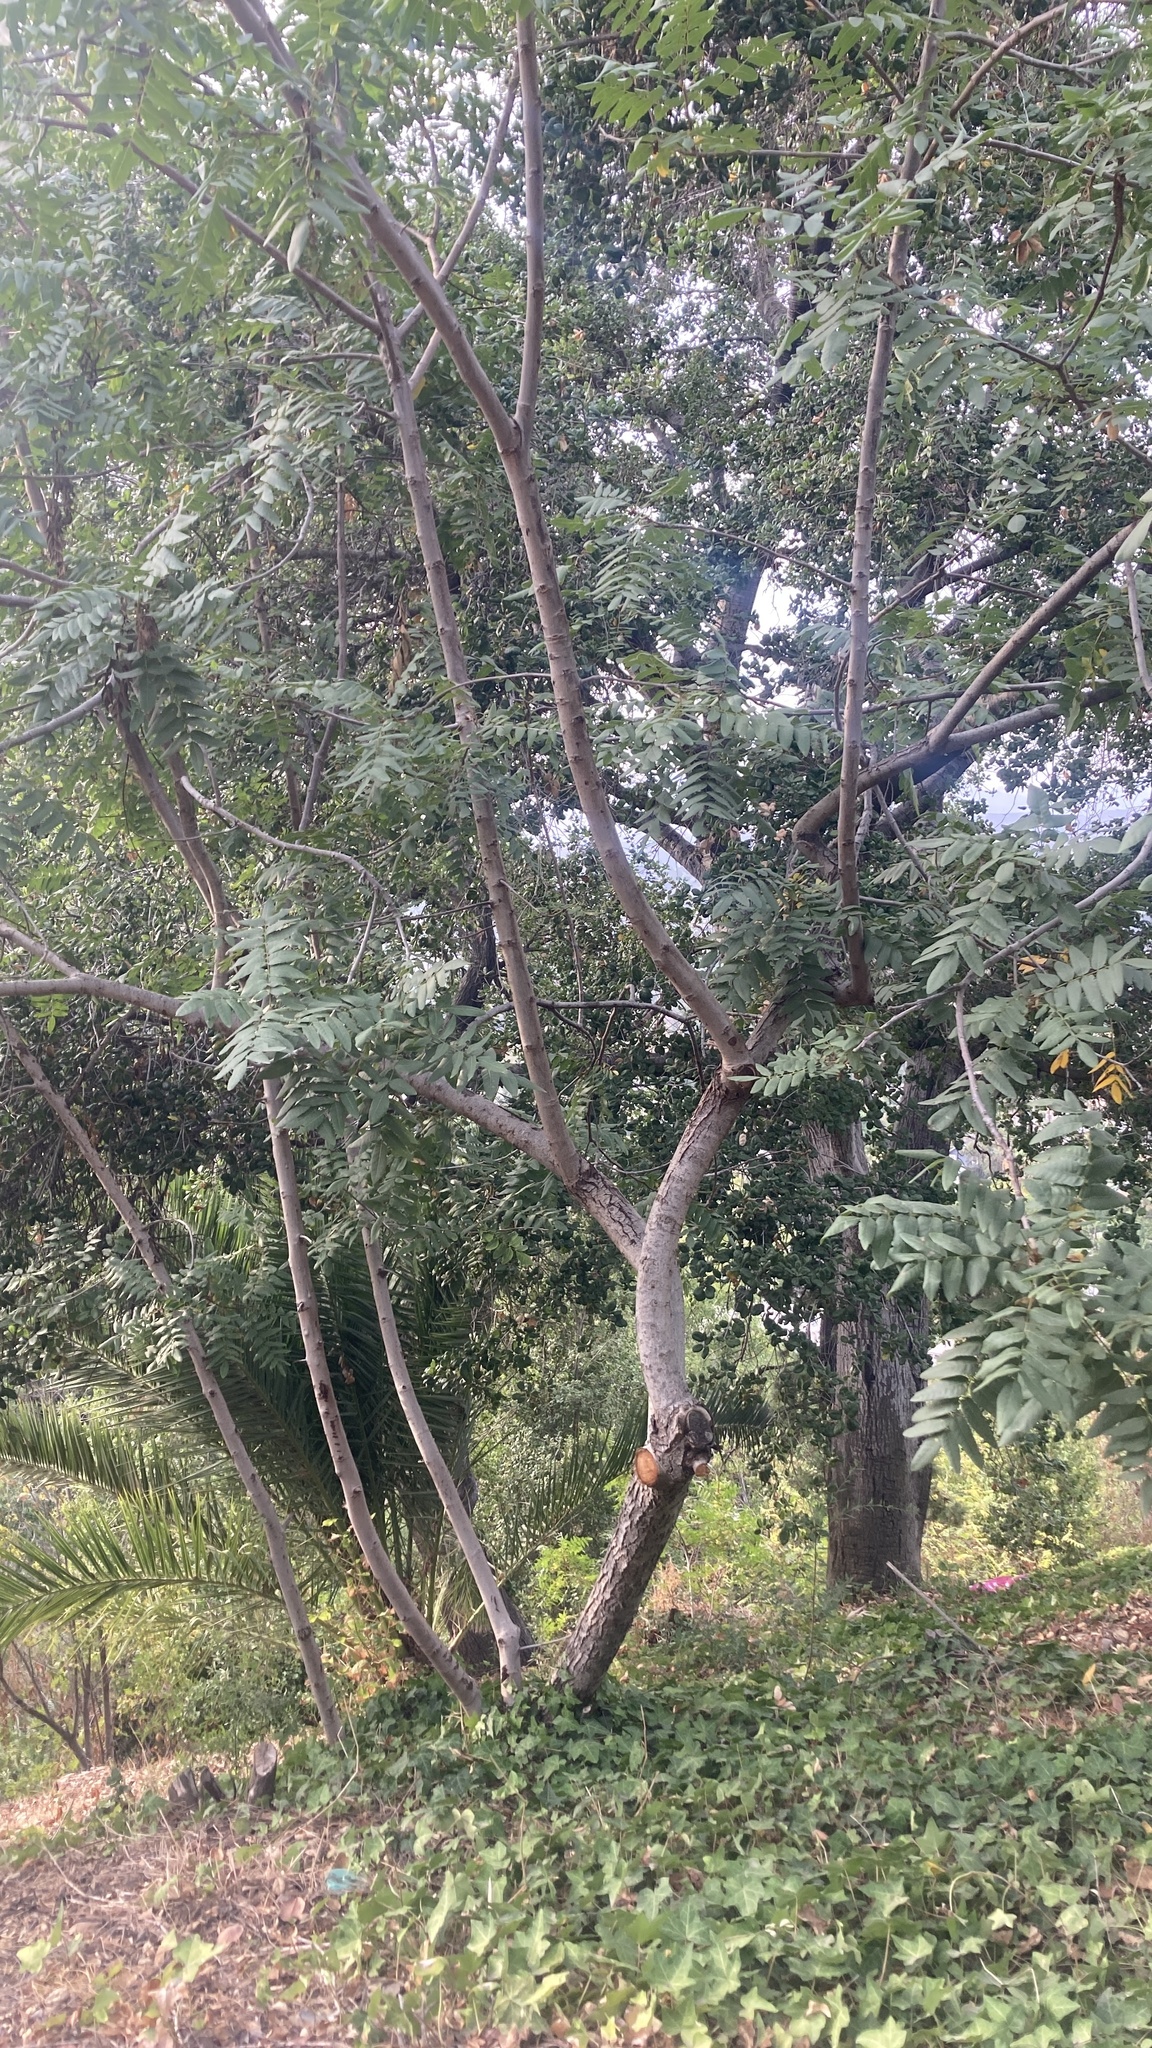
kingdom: Plantae
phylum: Tracheophyta
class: Magnoliopsida
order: Fagales
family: Juglandaceae
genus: Juglans
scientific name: Juglans californica
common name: Southern california black walnut
